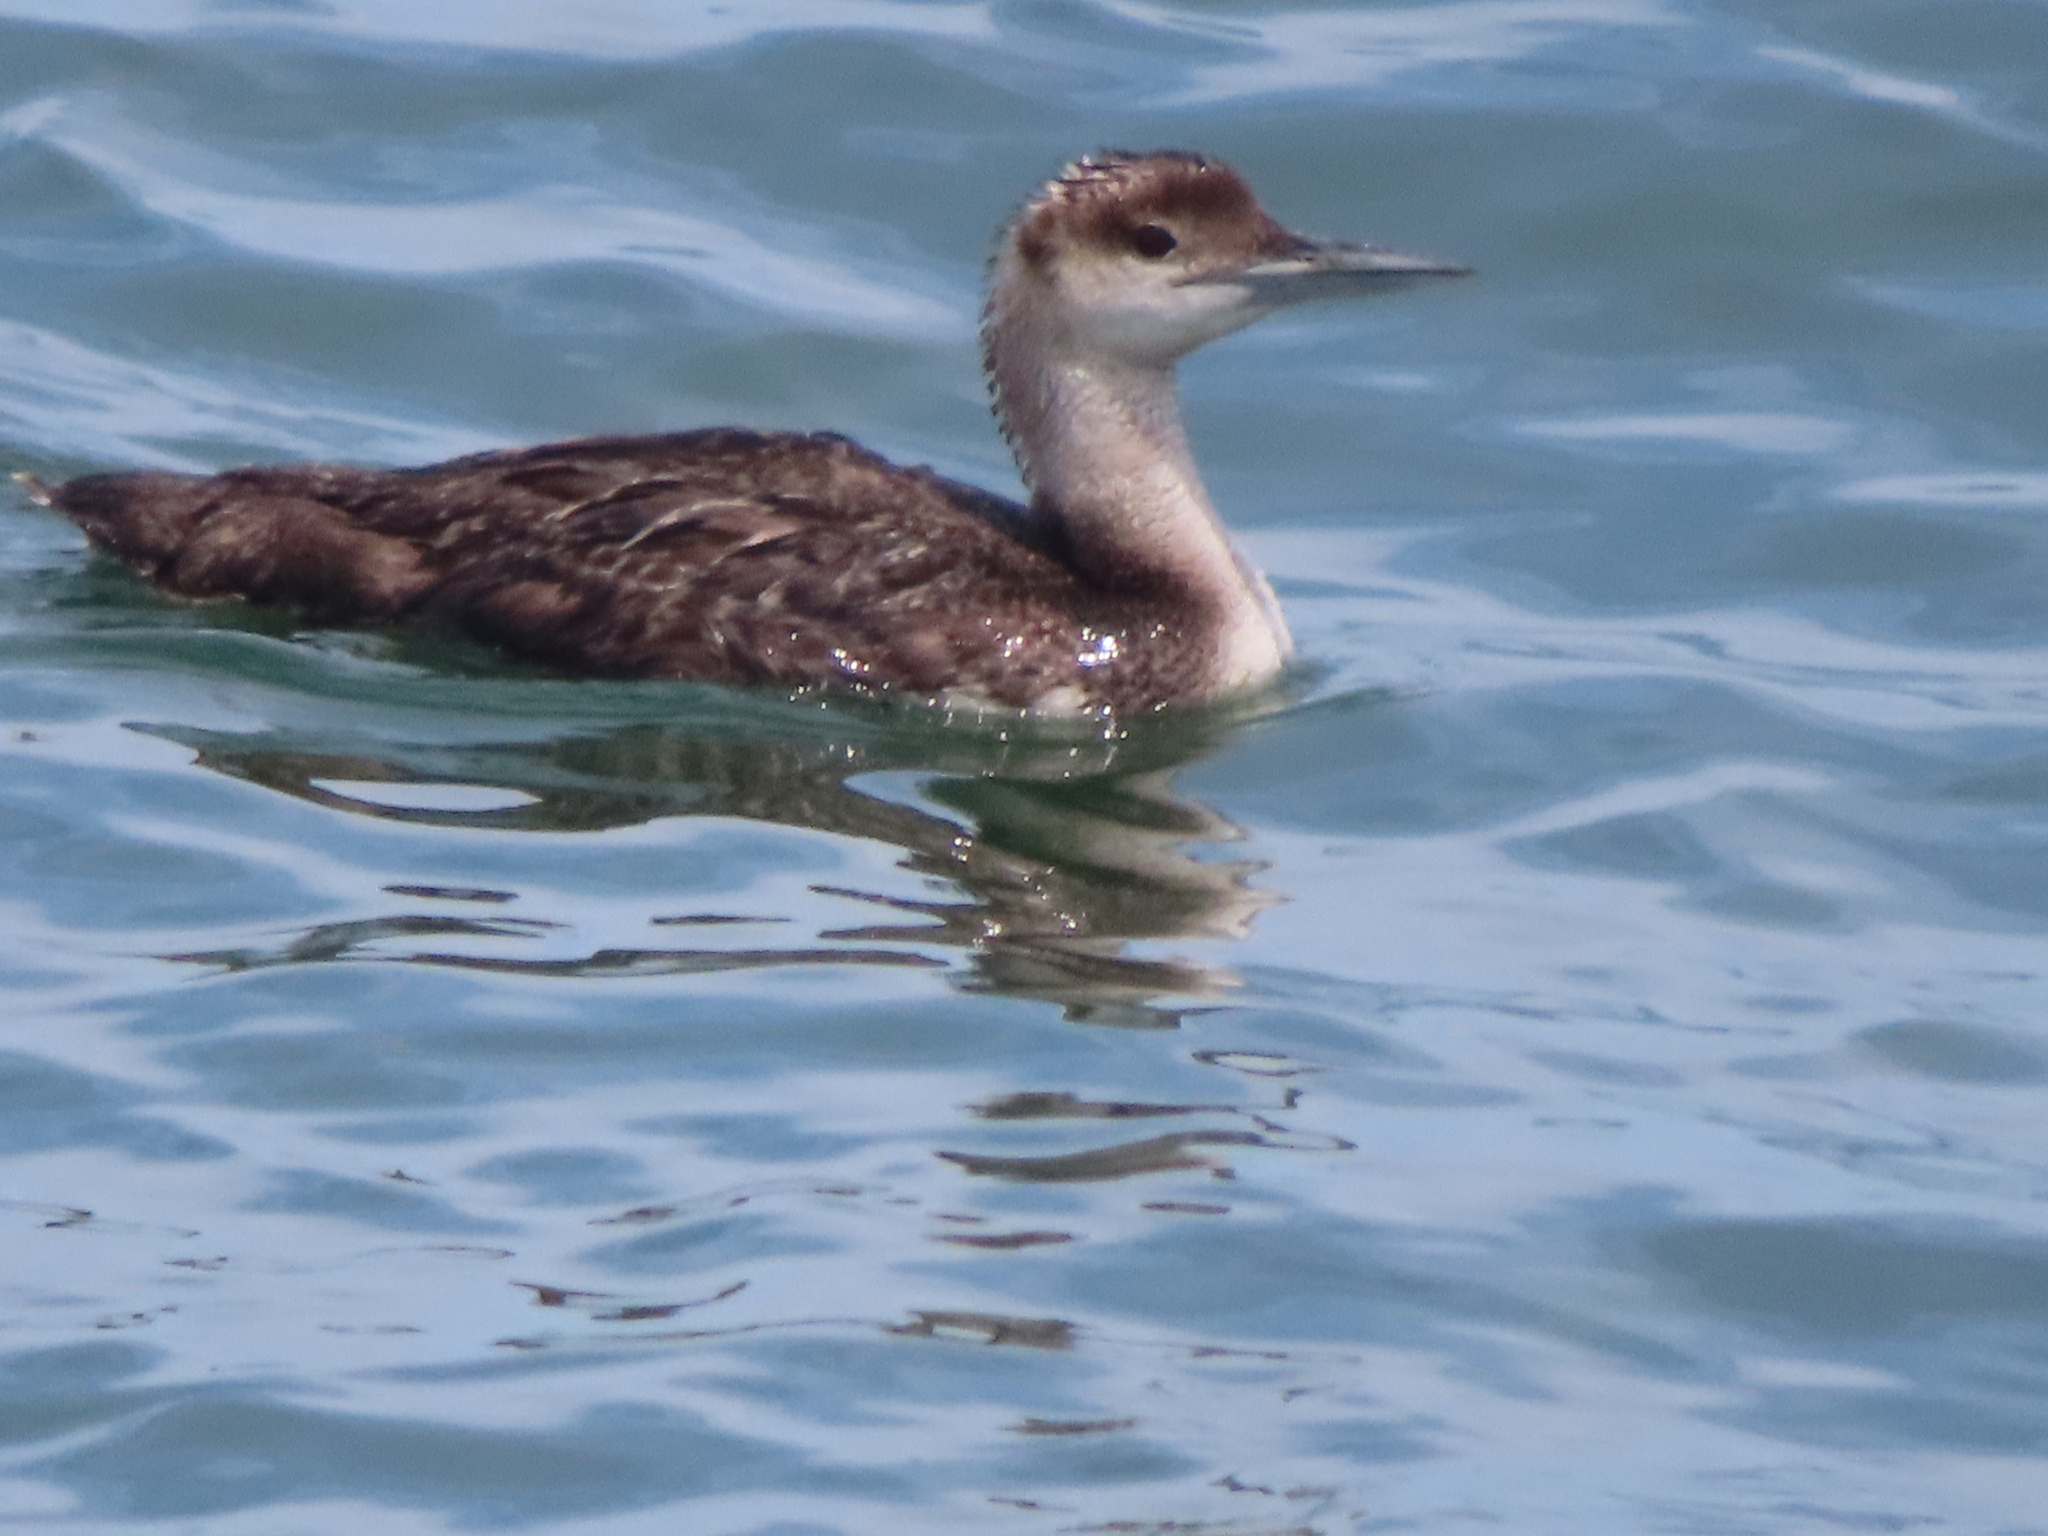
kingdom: Animalia
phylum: Chordata
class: Aves
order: Gaviiformes
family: Gaviidae
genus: Gavia
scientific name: Gavia immer
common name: Common loon
